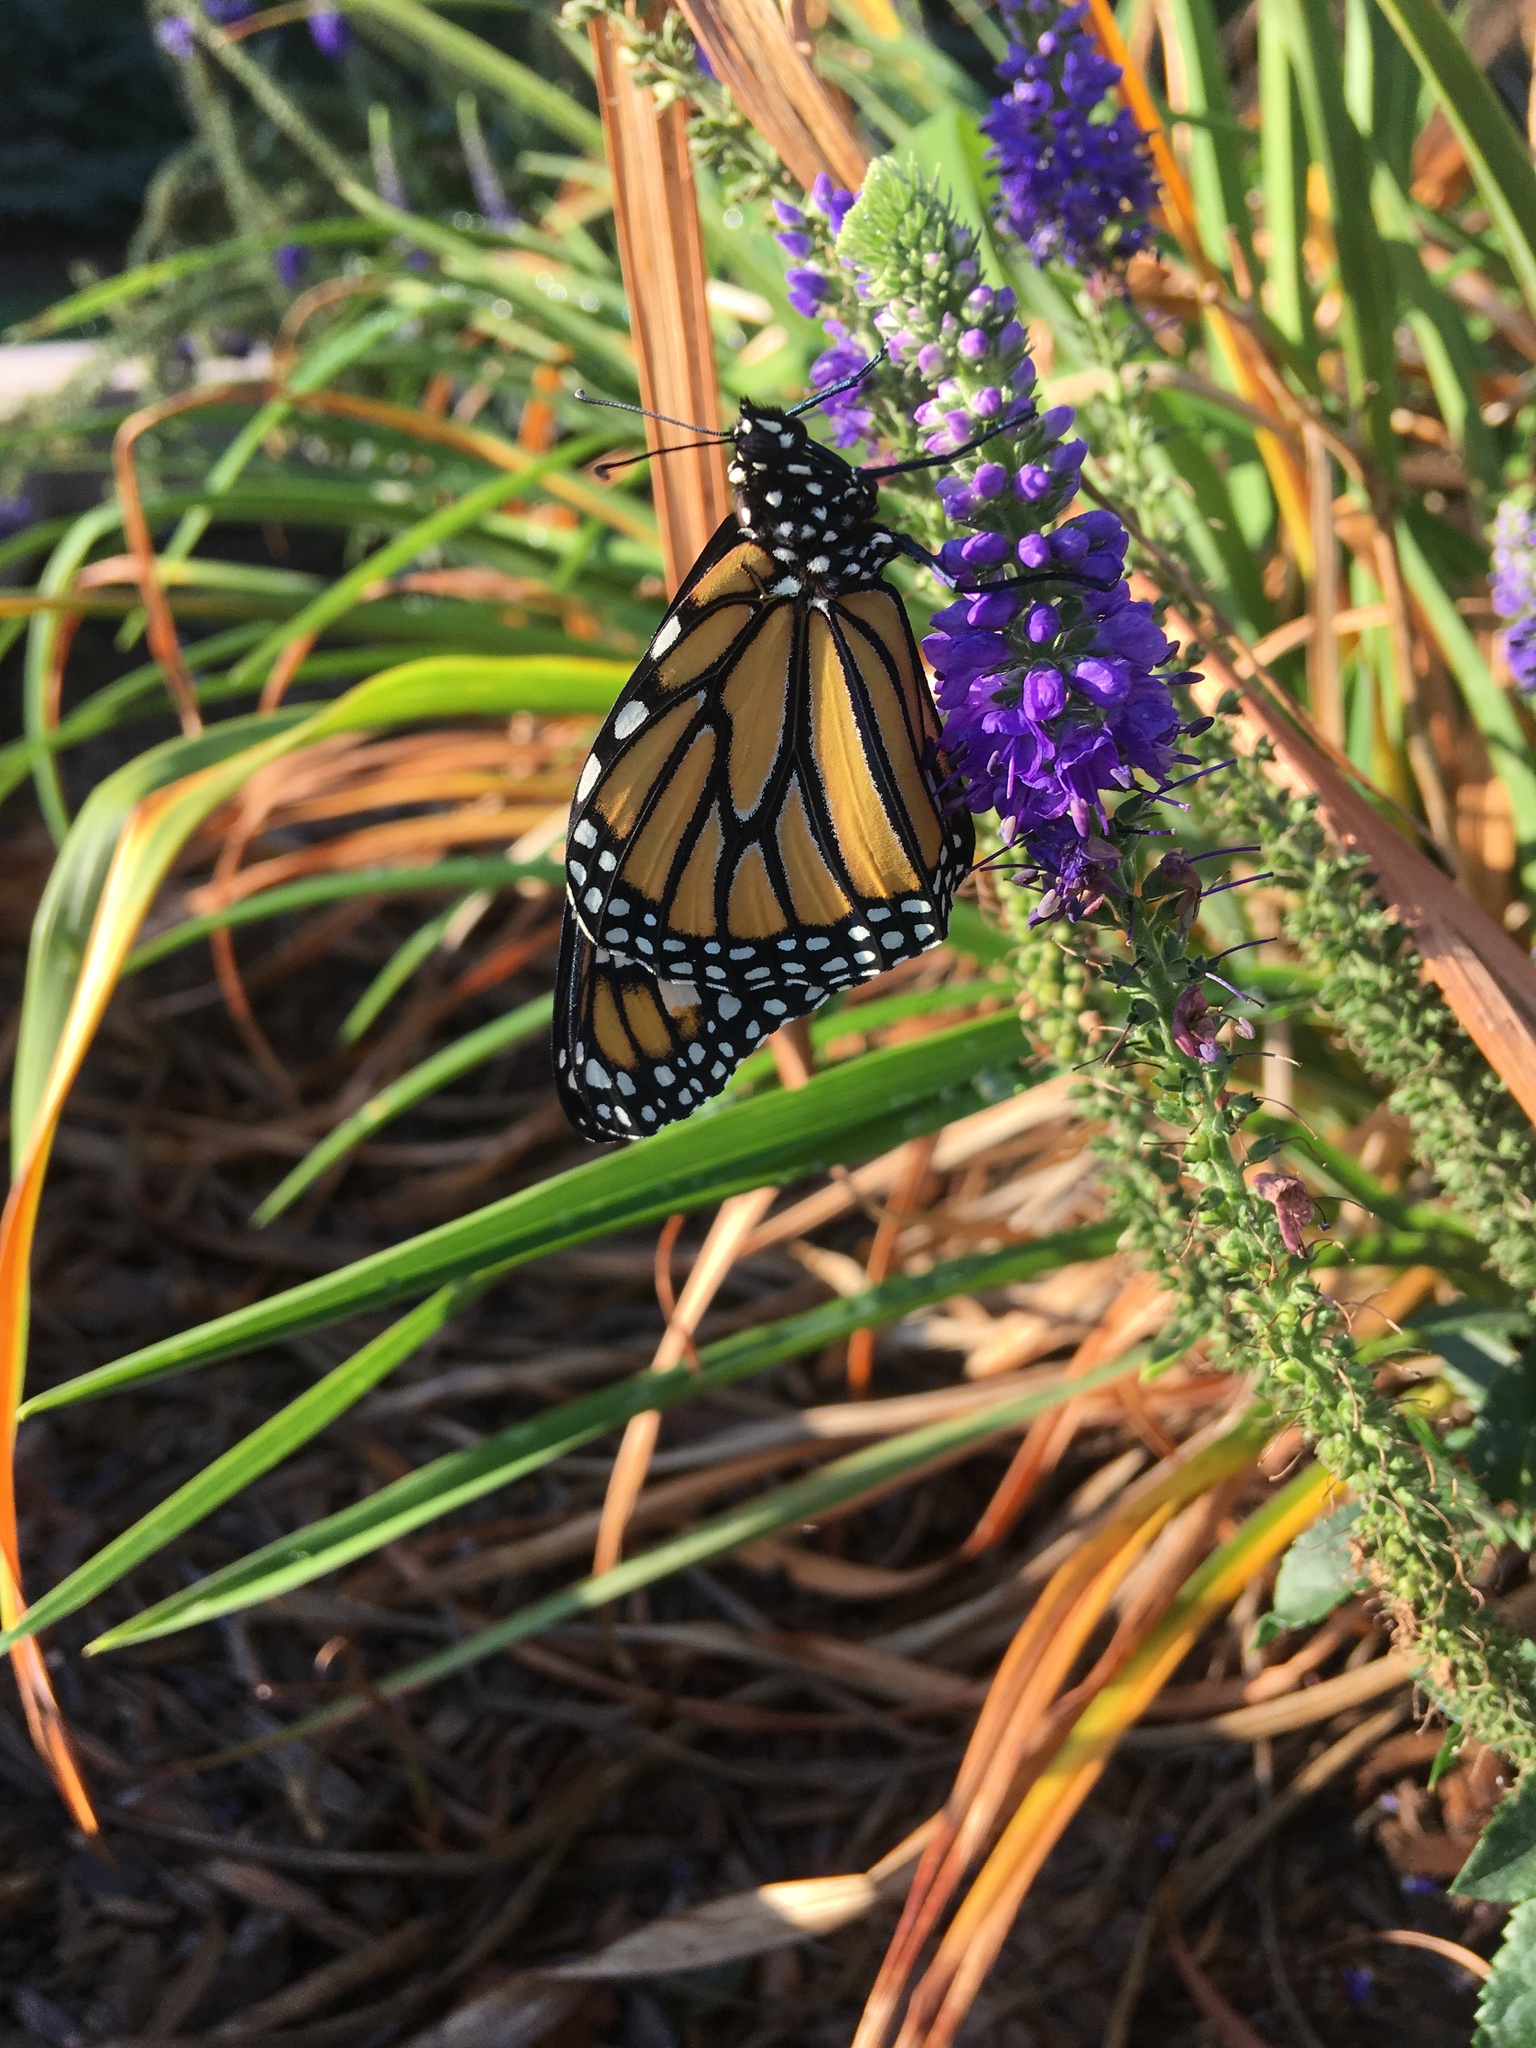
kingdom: Animalia
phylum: Arthropoda
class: Insecta
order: Lepidoptera
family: Nymphalidae
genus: Danaus
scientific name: Danaus plexippus
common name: Monarch
